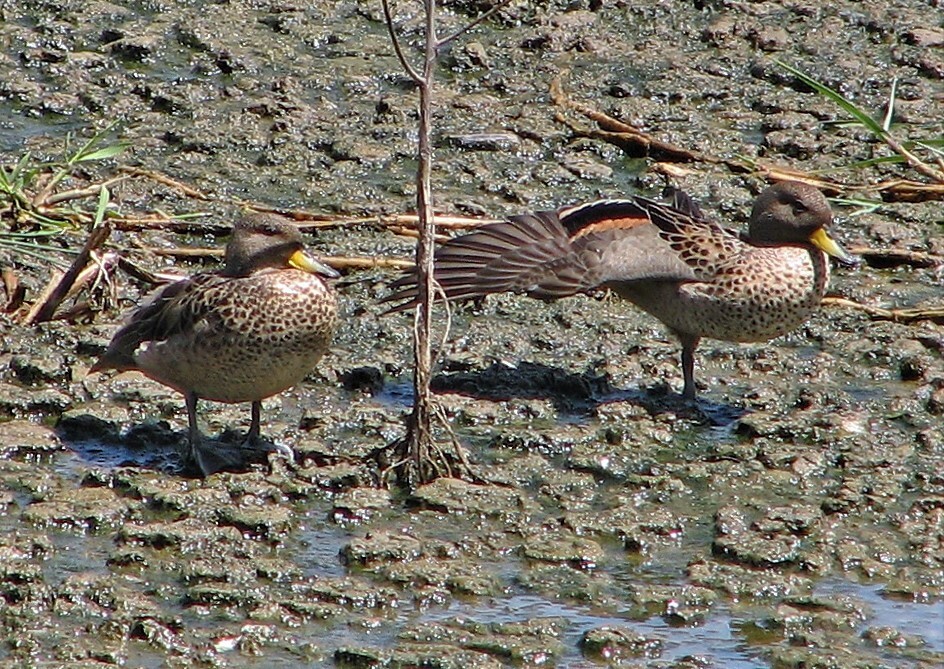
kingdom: Animalia
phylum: Chordata
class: Aves
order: Anseriformes
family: Anatidae
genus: Anas
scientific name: Anas flavirostris
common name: Yellow-billed teal
